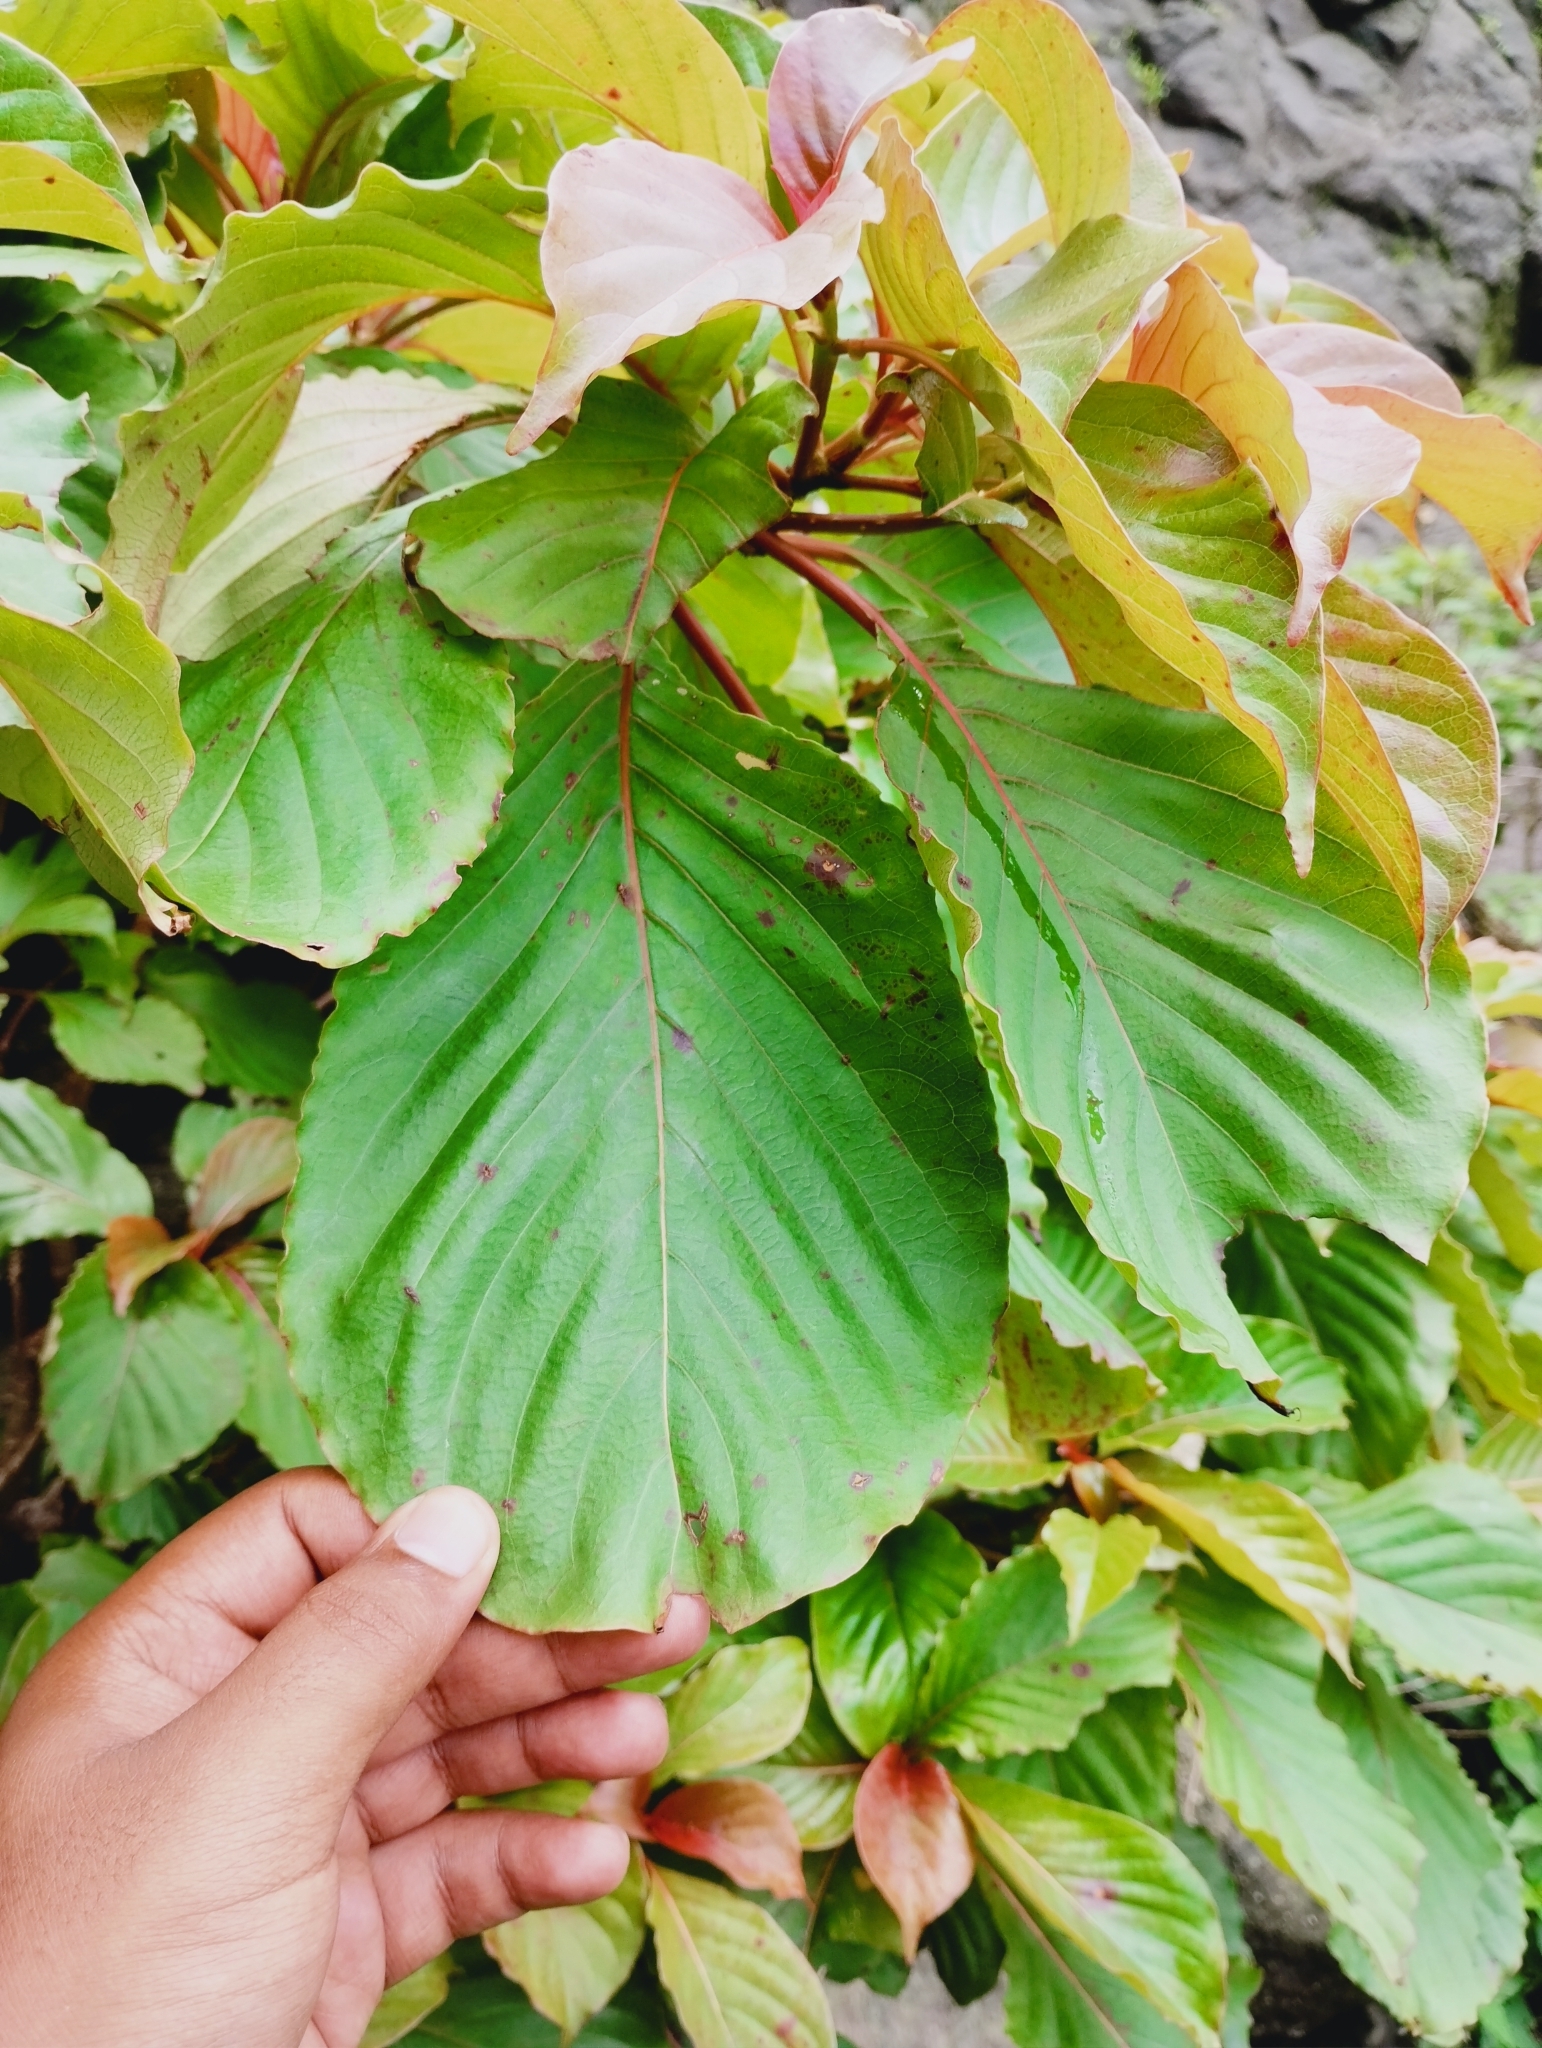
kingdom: Plantae
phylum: Tracheophyta
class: Magnoliopsida
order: Gentianales
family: Rubiaceae
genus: Hymenodictyon
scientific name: Hymenodictyon obovatum
